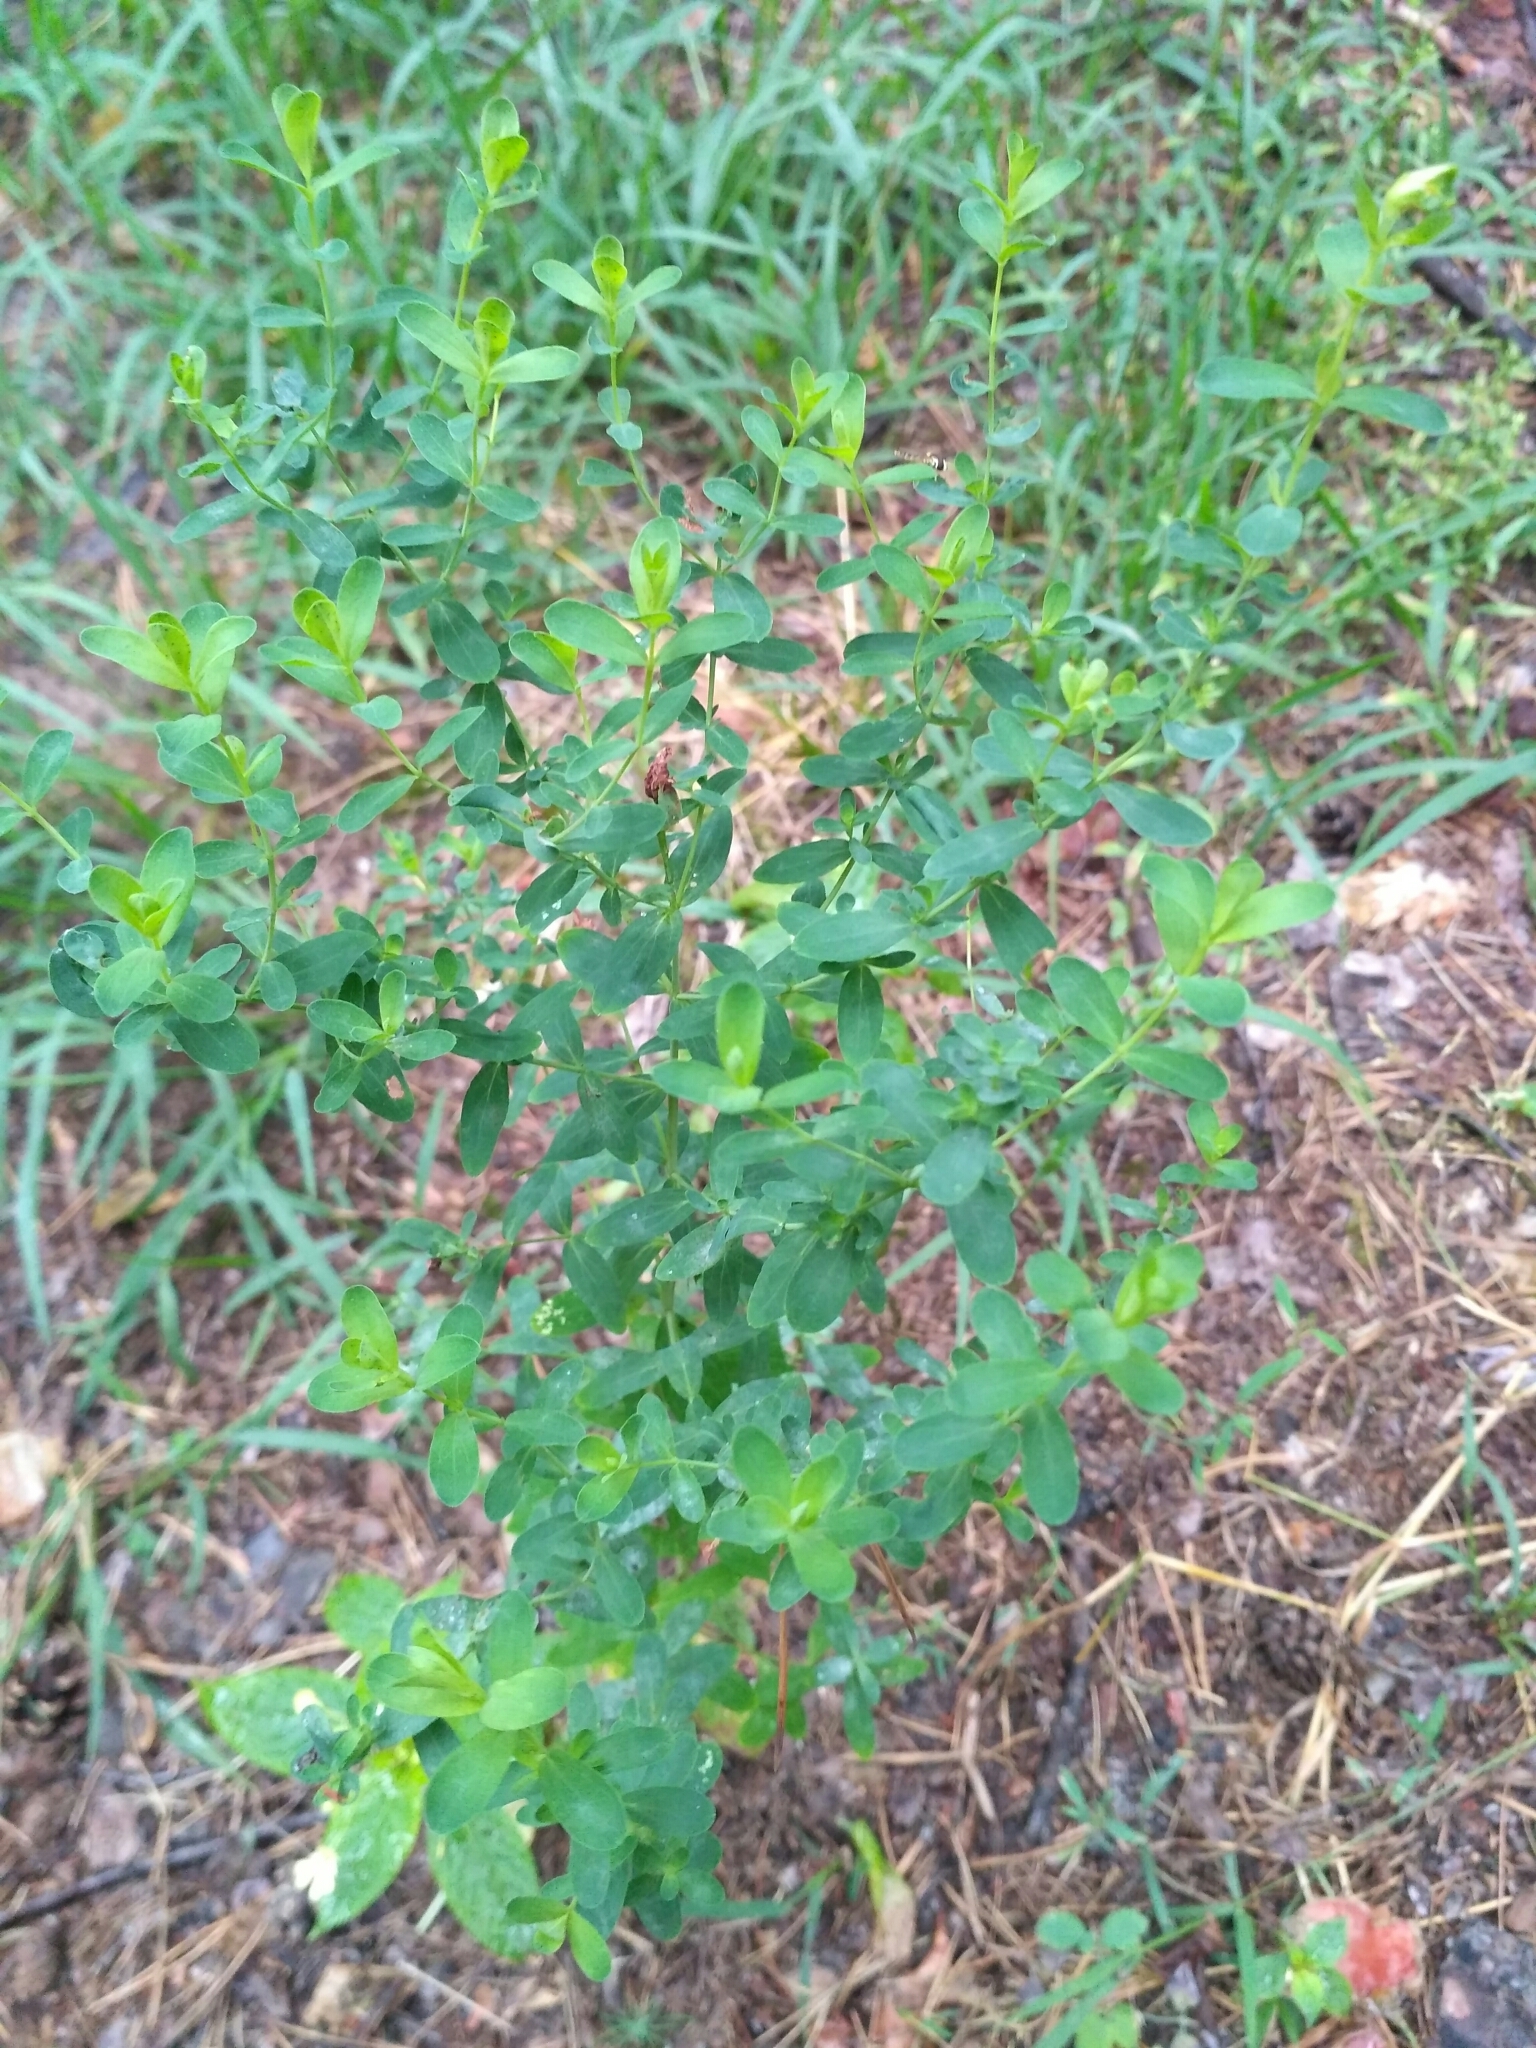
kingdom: Plantae
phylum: Tracheophyta
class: Magnoliopsida
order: Malpighiales
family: Hypericaceae
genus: Hypericum
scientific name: Hypericum perforatum
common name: Common st. johnswort
